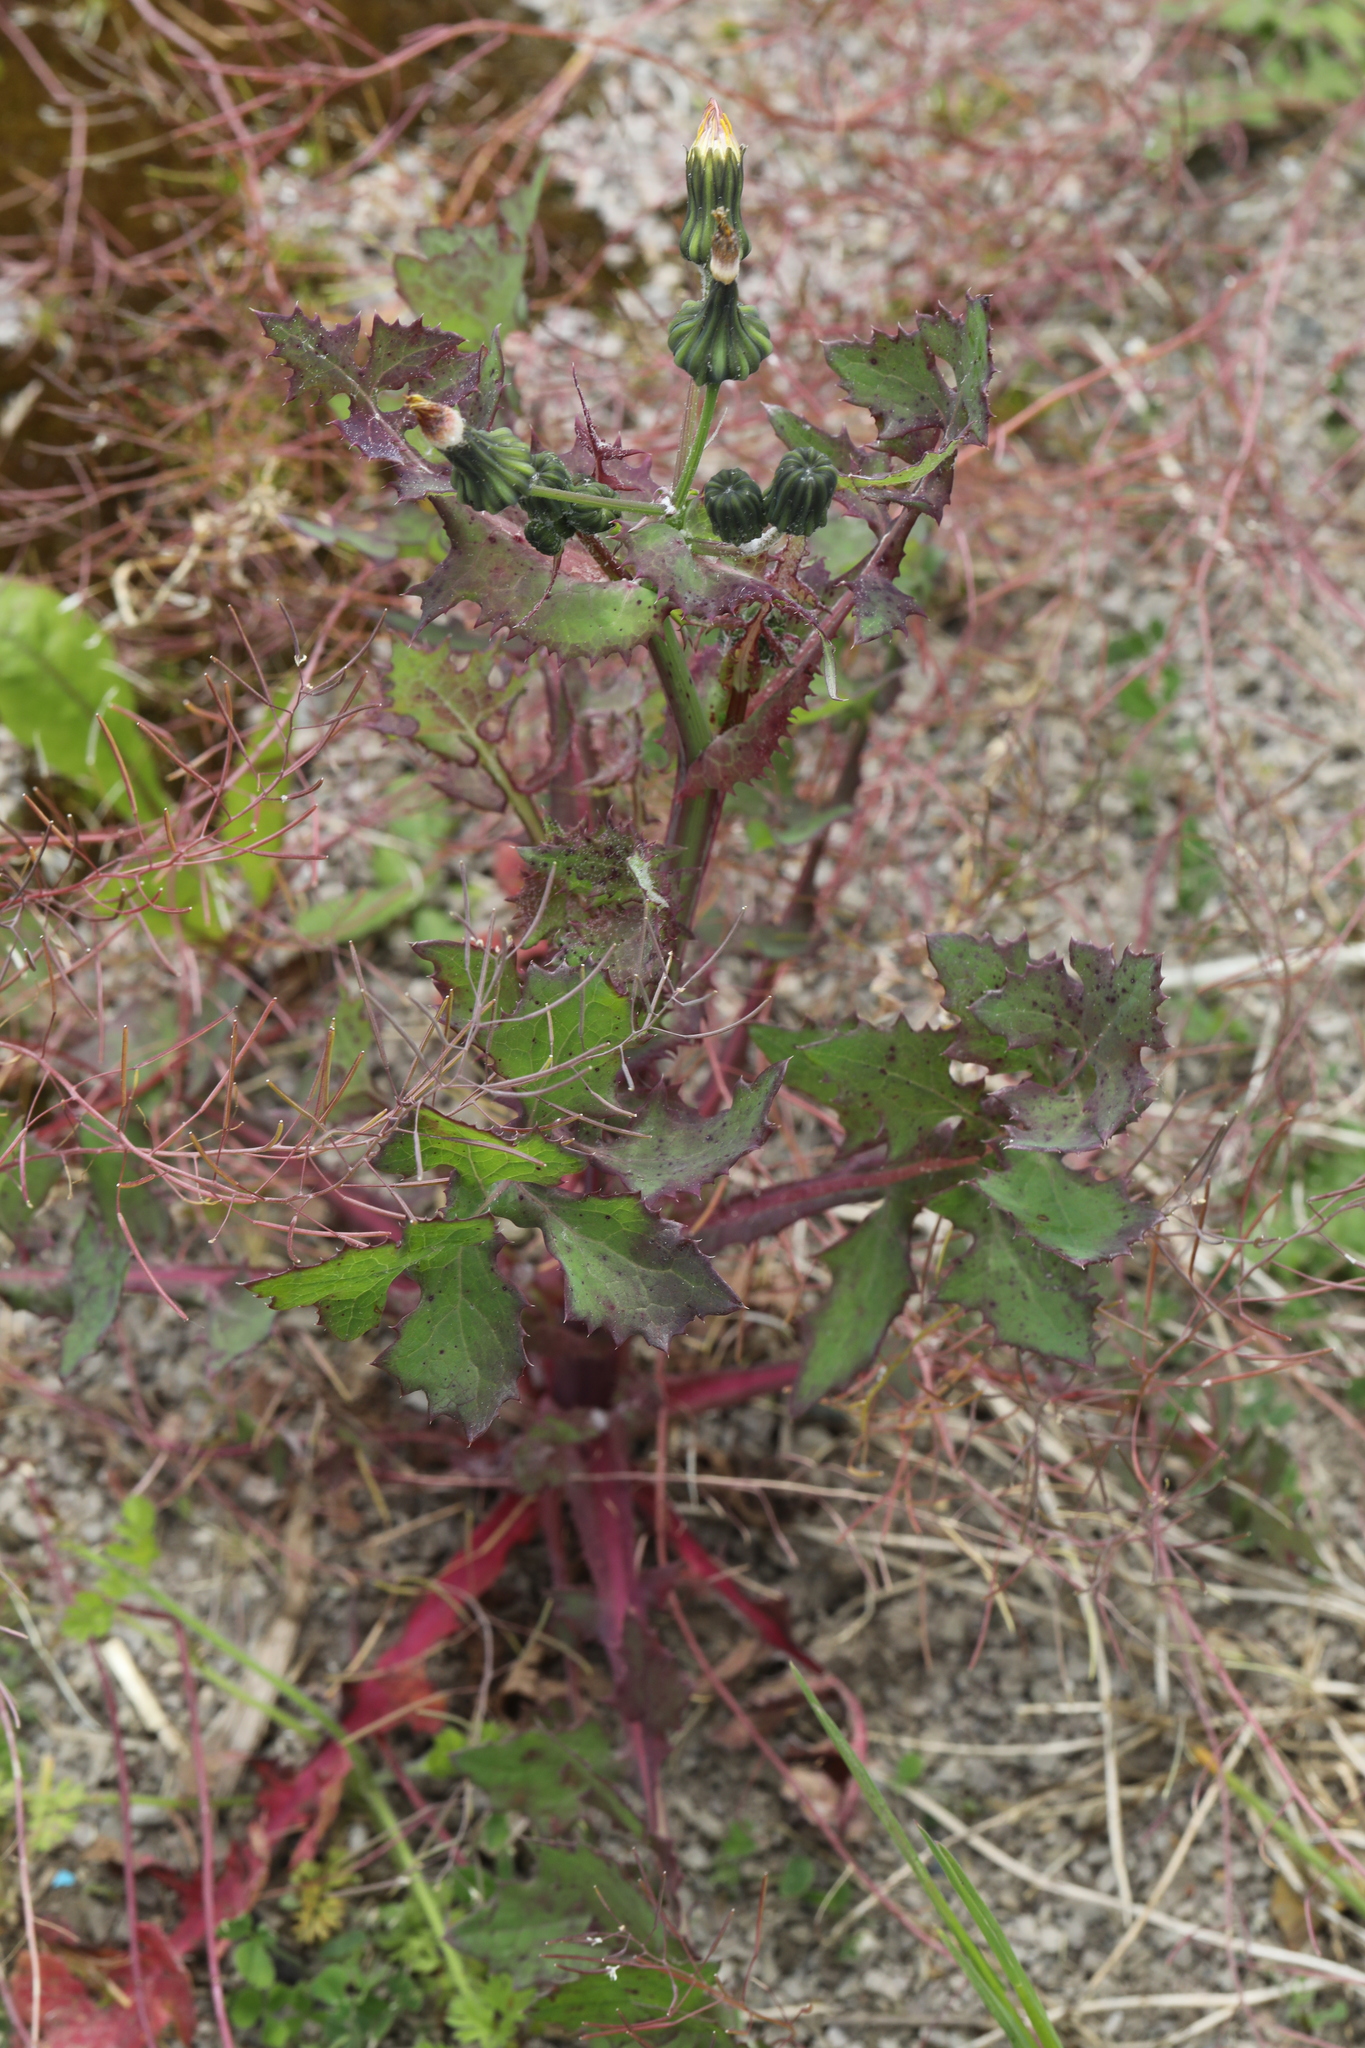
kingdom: Plantae
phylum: Tracheophyta
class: Magnoliopsida
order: Asterales
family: Asteraceae
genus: Sonchus
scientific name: Sonchus oleraceus
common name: Common sowthistle
